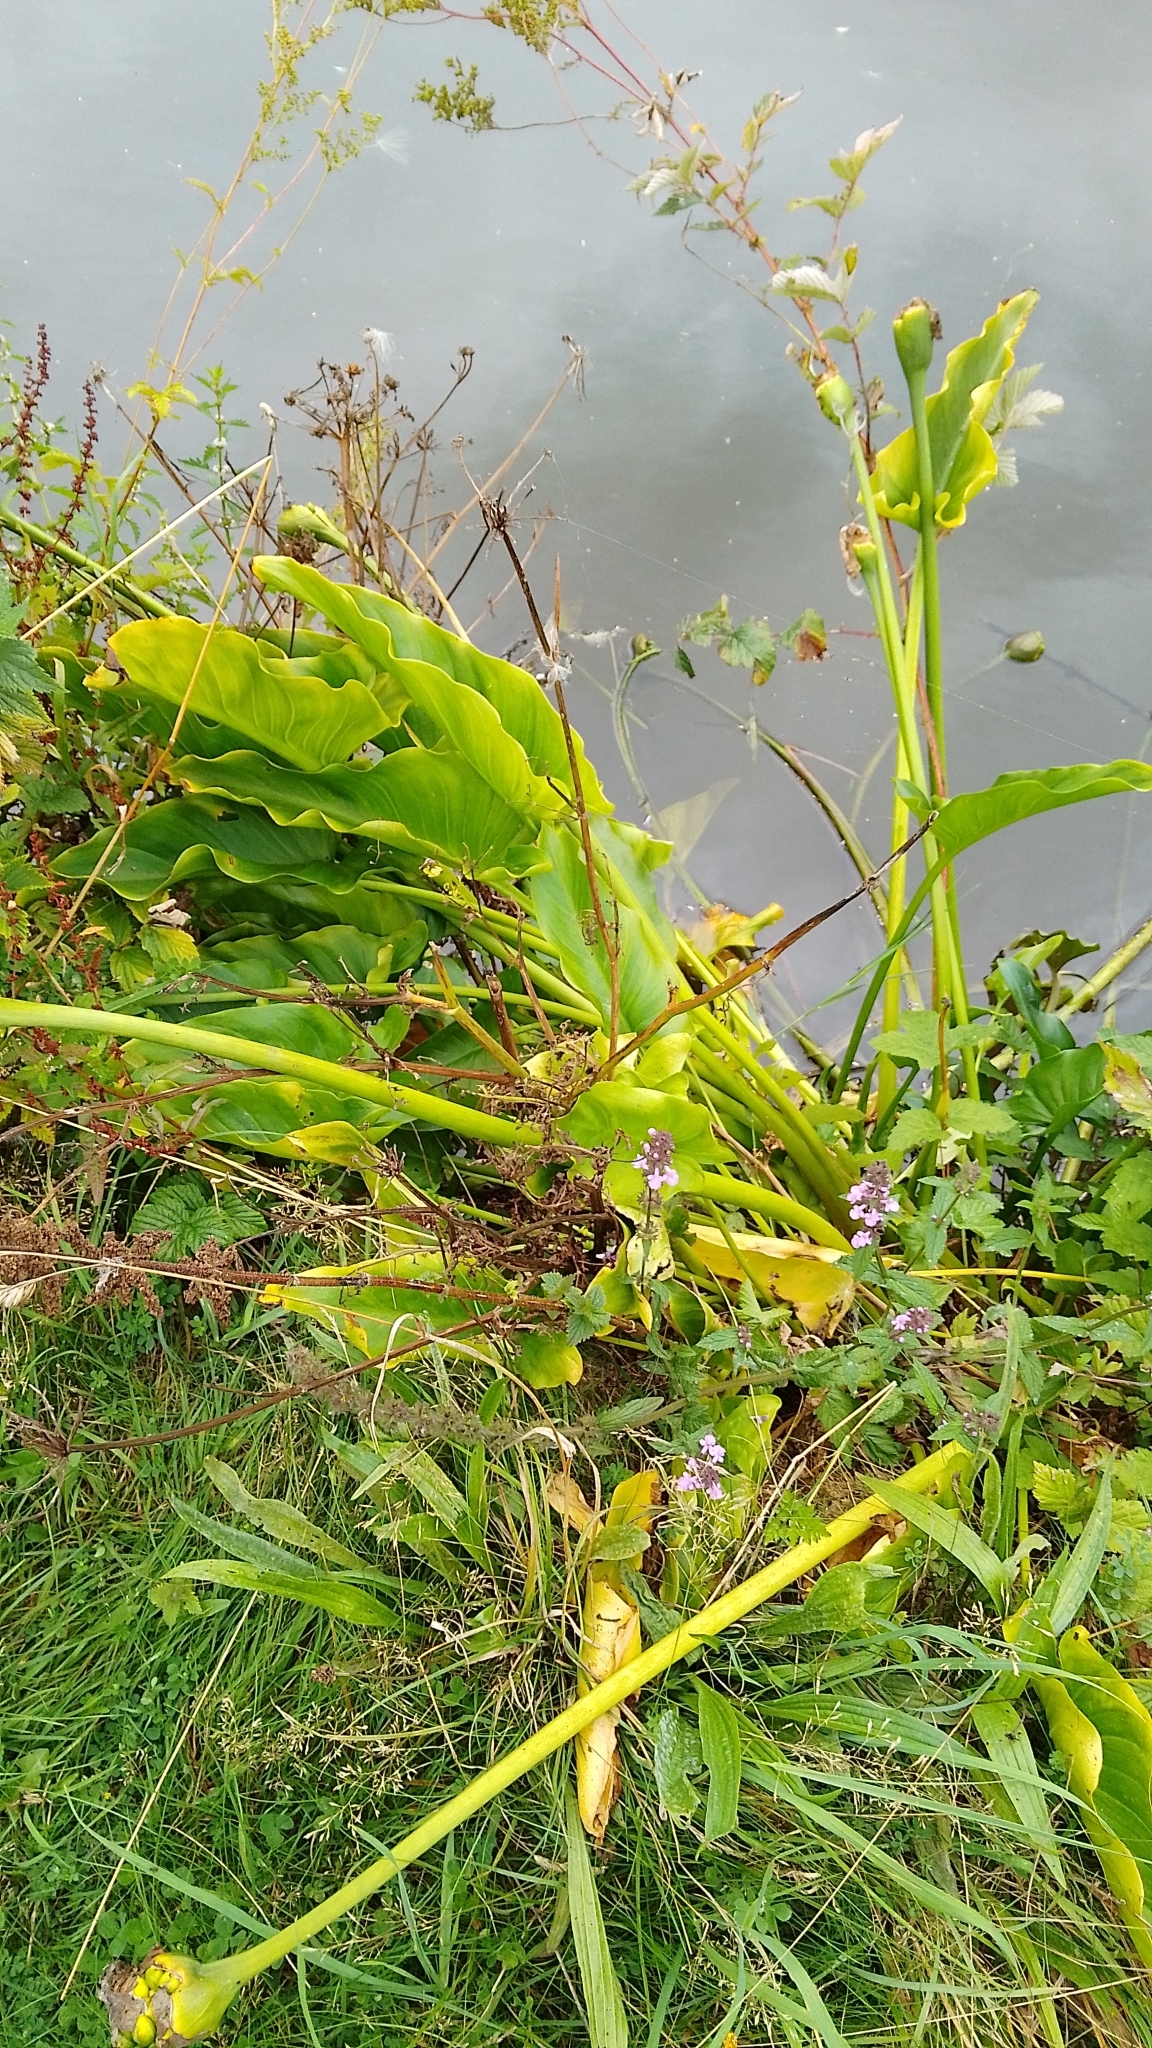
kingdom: Plantae
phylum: Tracheophyta
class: Liliopsida
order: Alismatales
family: Araceae
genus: Zantedeschia
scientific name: Zantedeschia aethiopica
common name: Altar-lily
